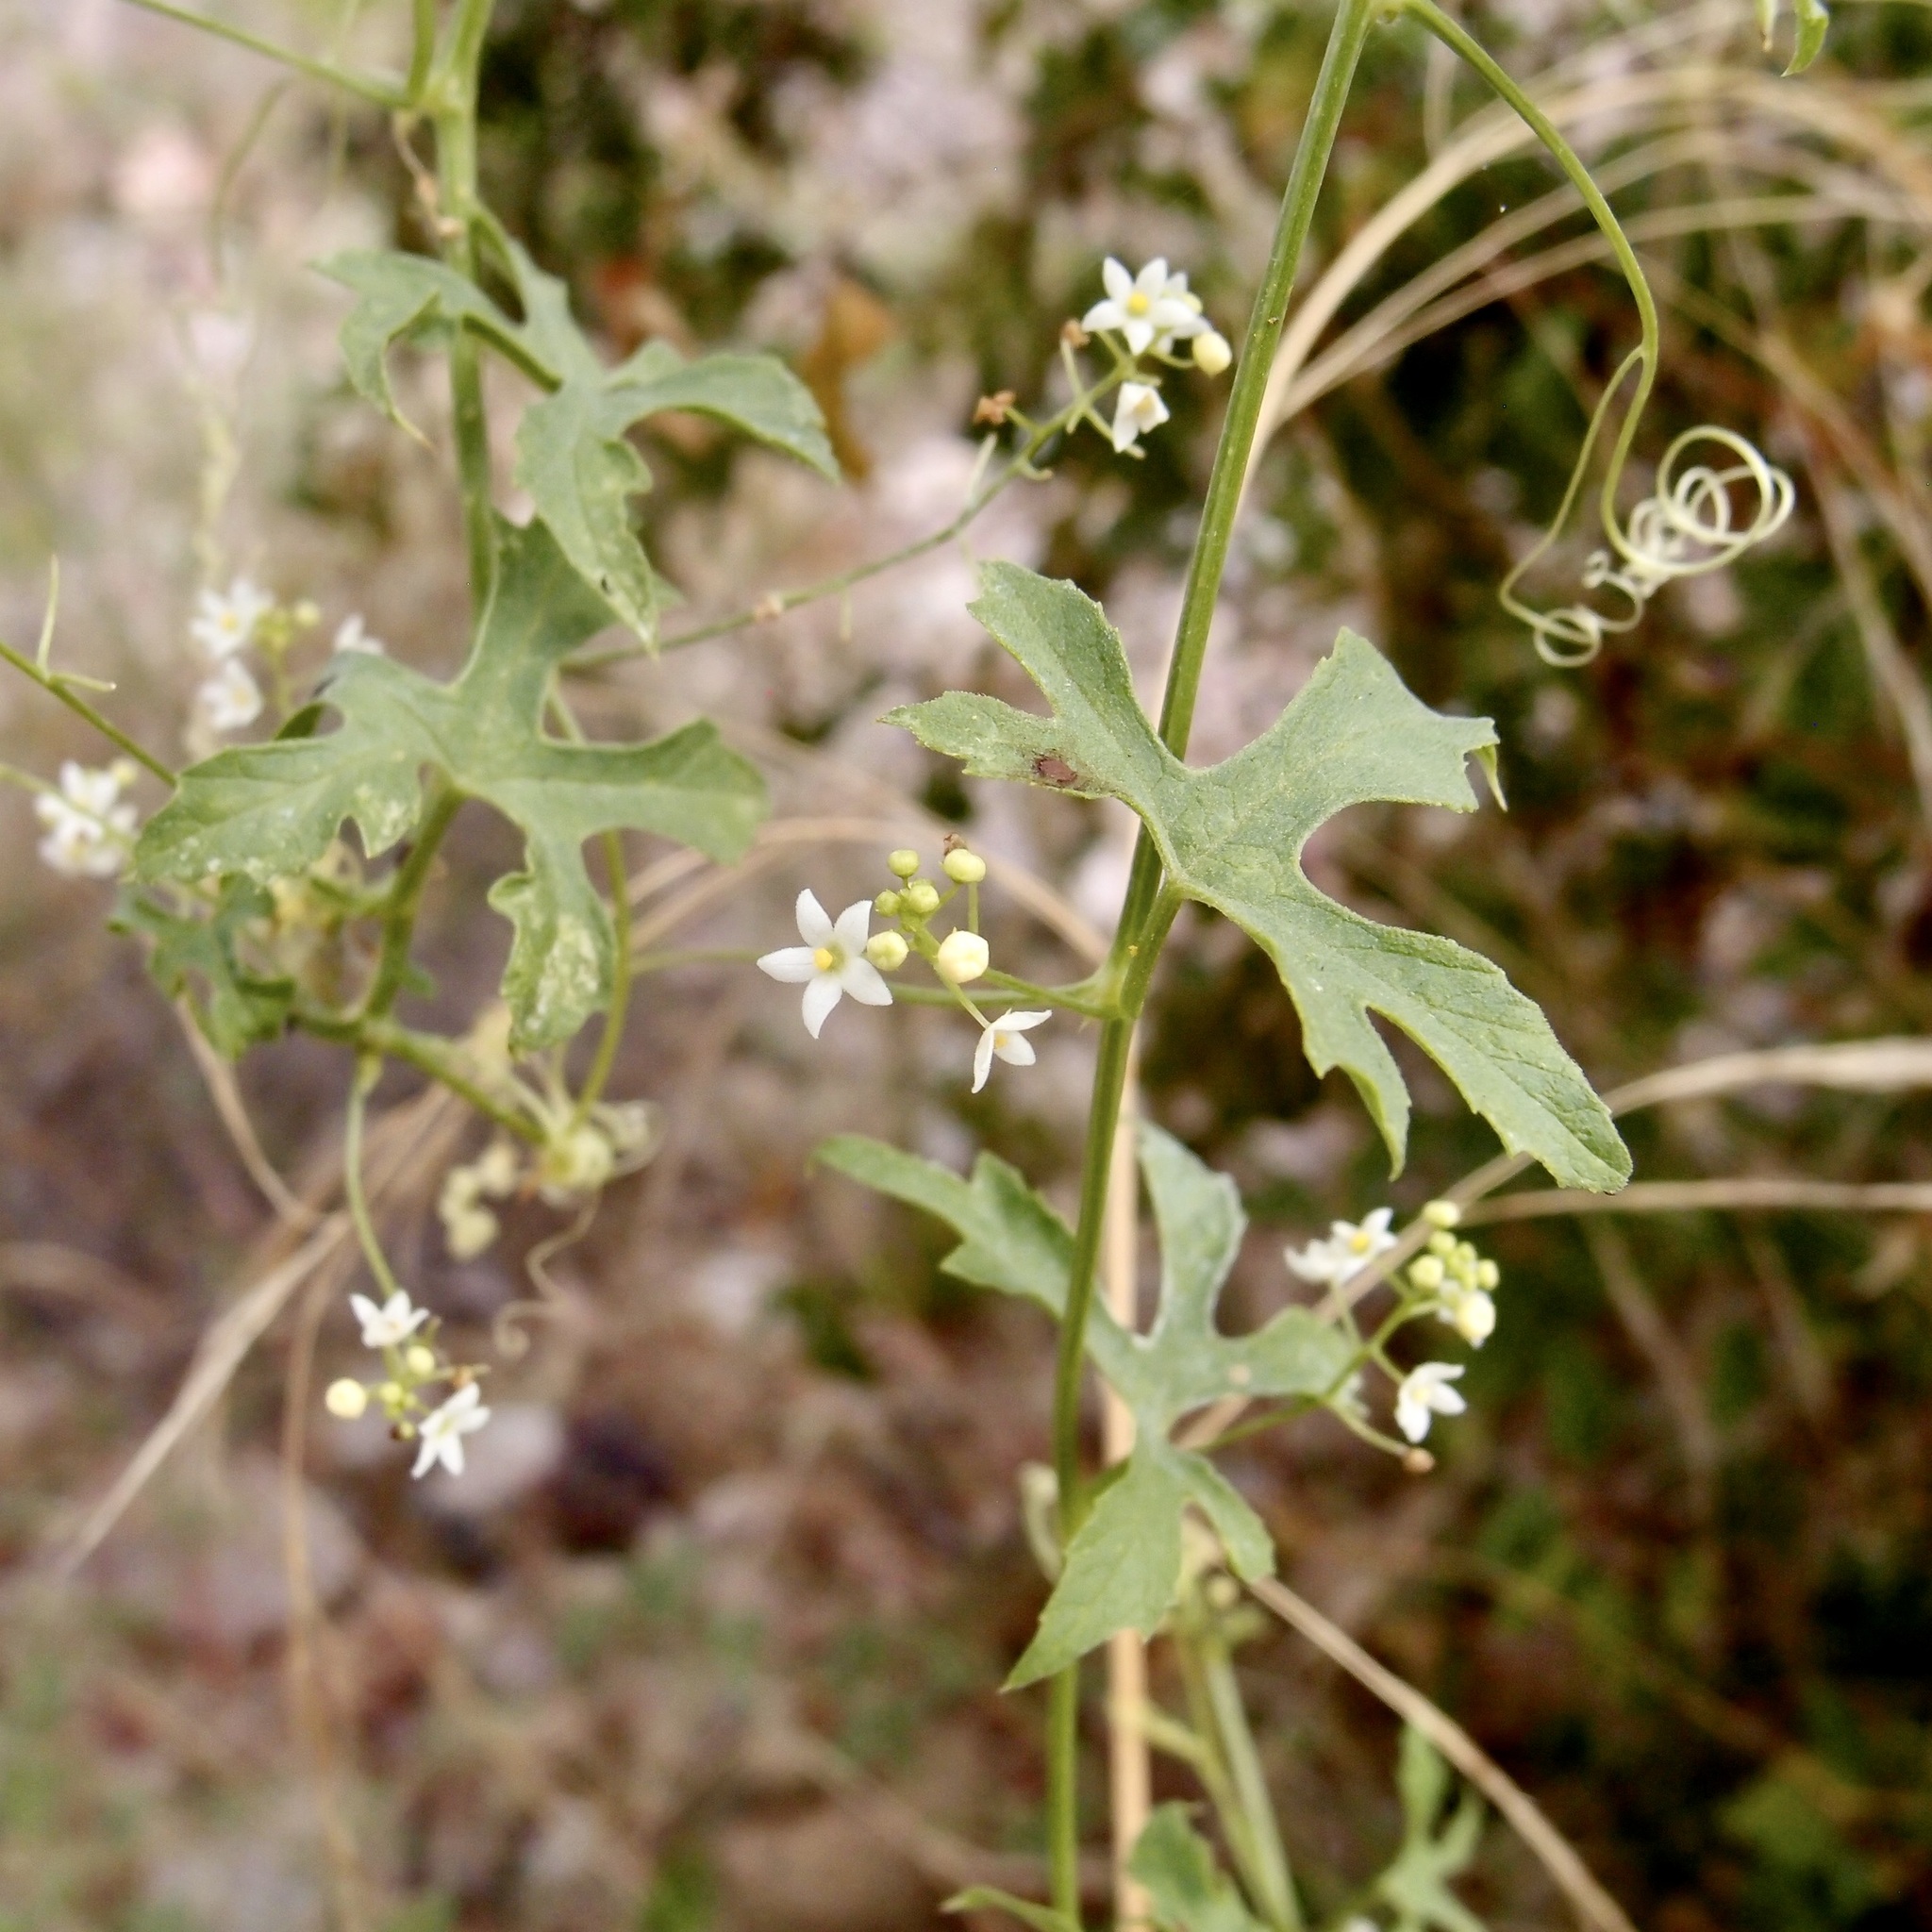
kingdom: Plantae
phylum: Tracheophyta
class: Magnoliopsida
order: Cucurbitales
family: Cucurbitaceae
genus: Echinopepon
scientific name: Echinopepon insularis
